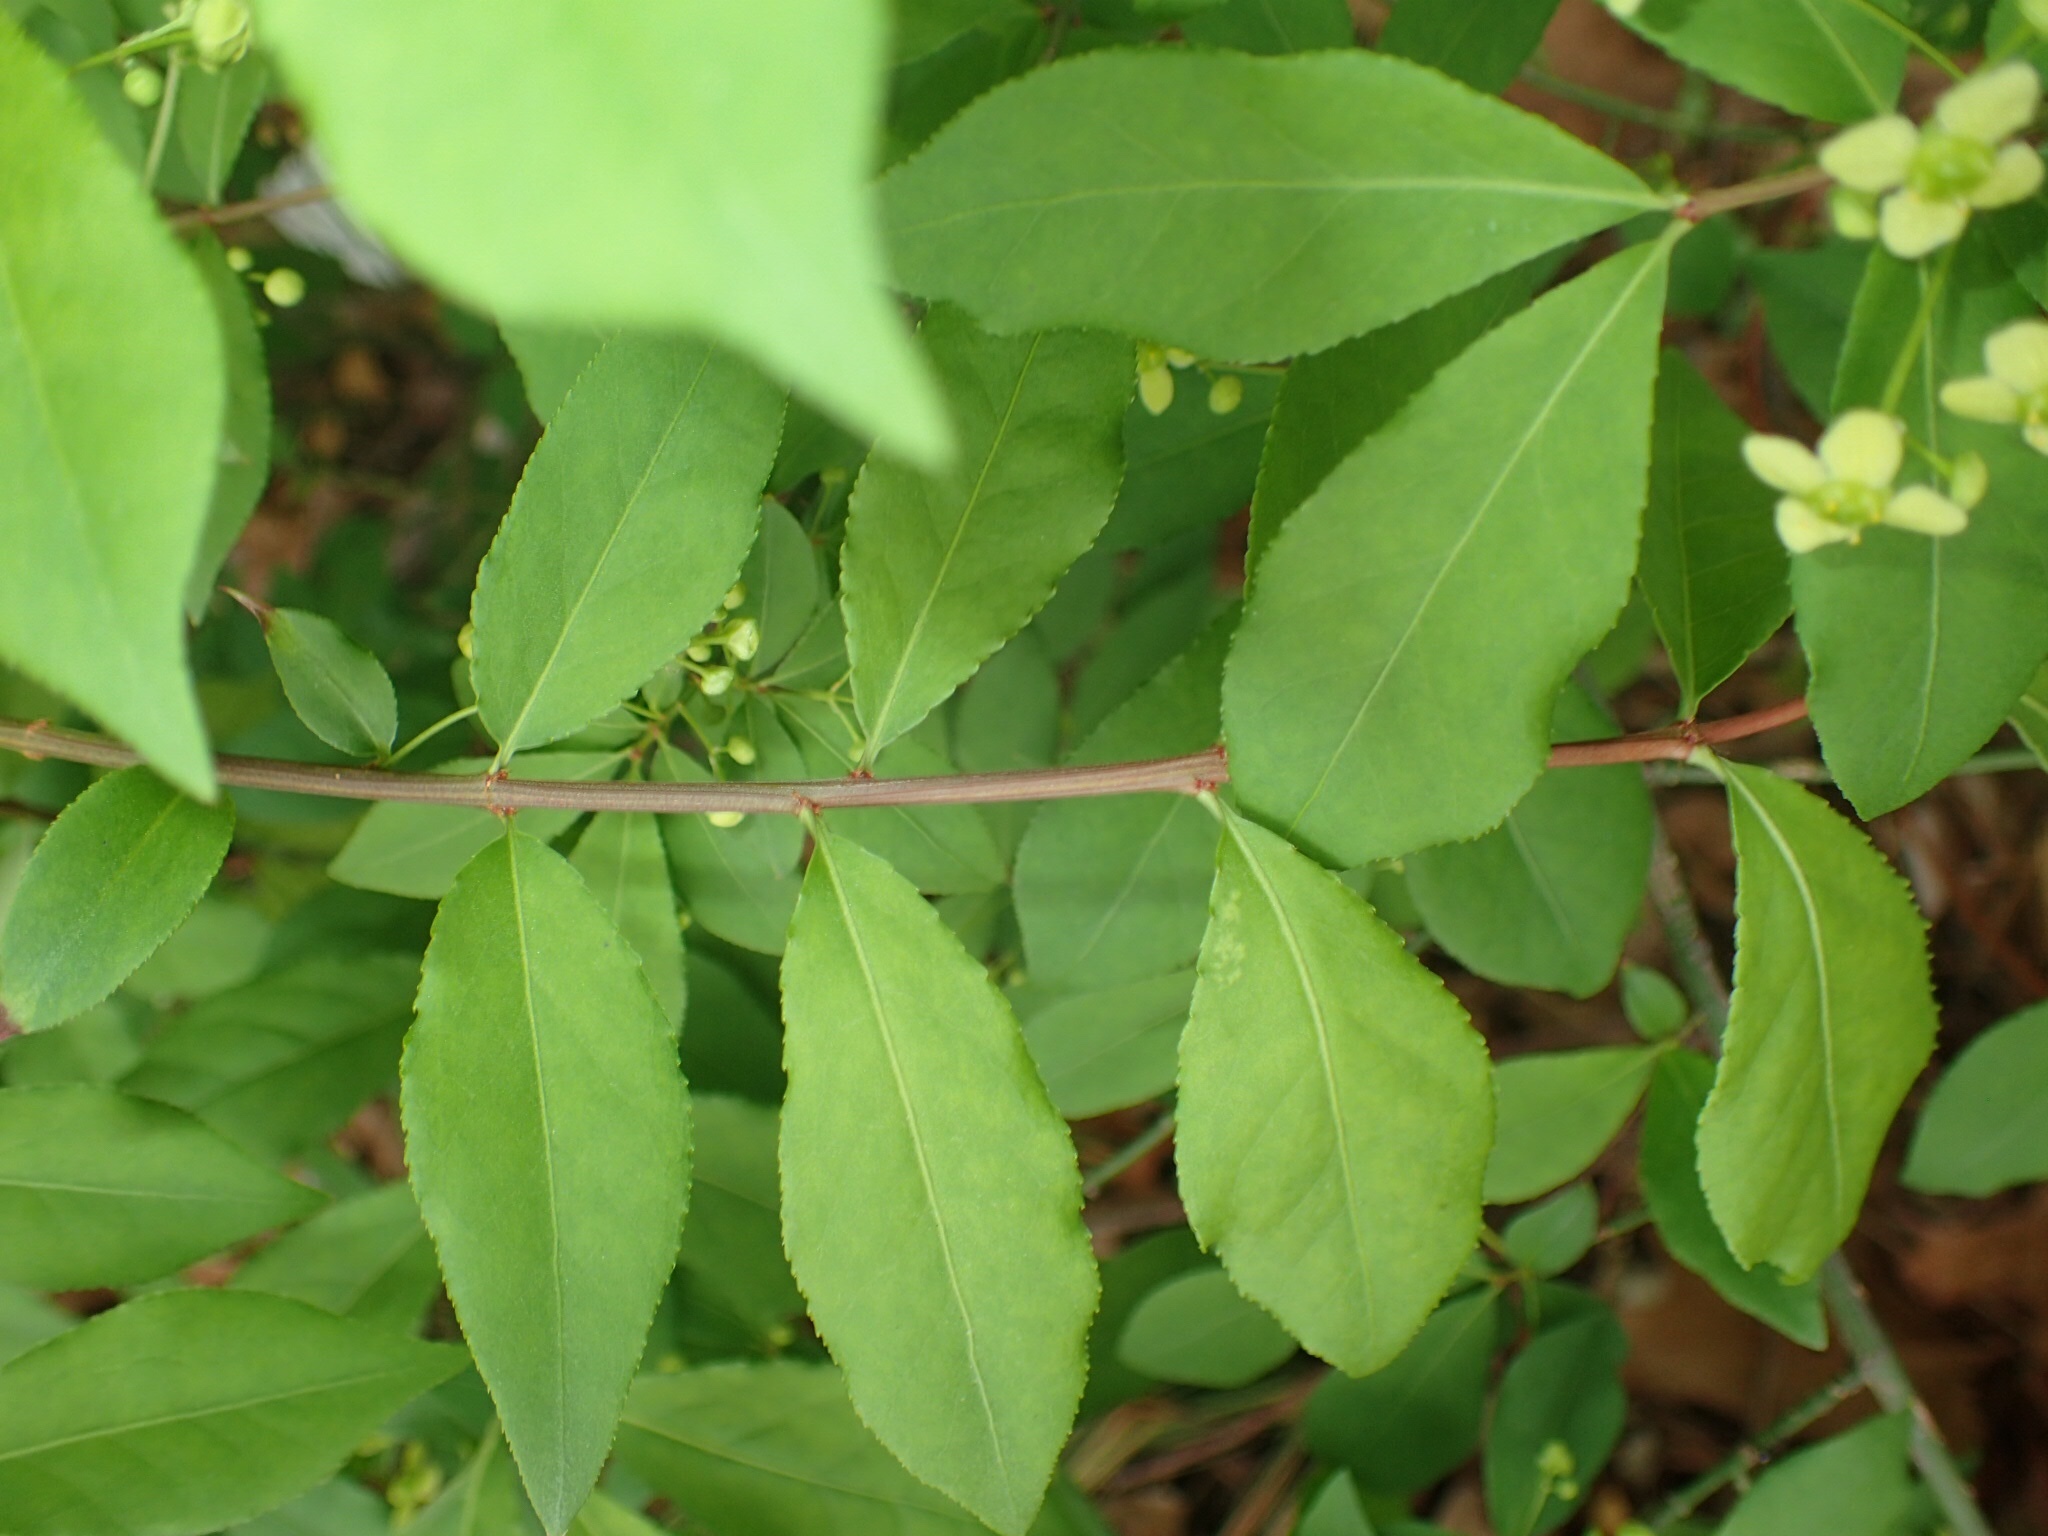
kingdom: Plantae
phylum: Tracheophyta
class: Magnoliopsida
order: Celastrales
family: Celastraceae
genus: Euonymus
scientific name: Euonymus alatus
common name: Winged euonymus
